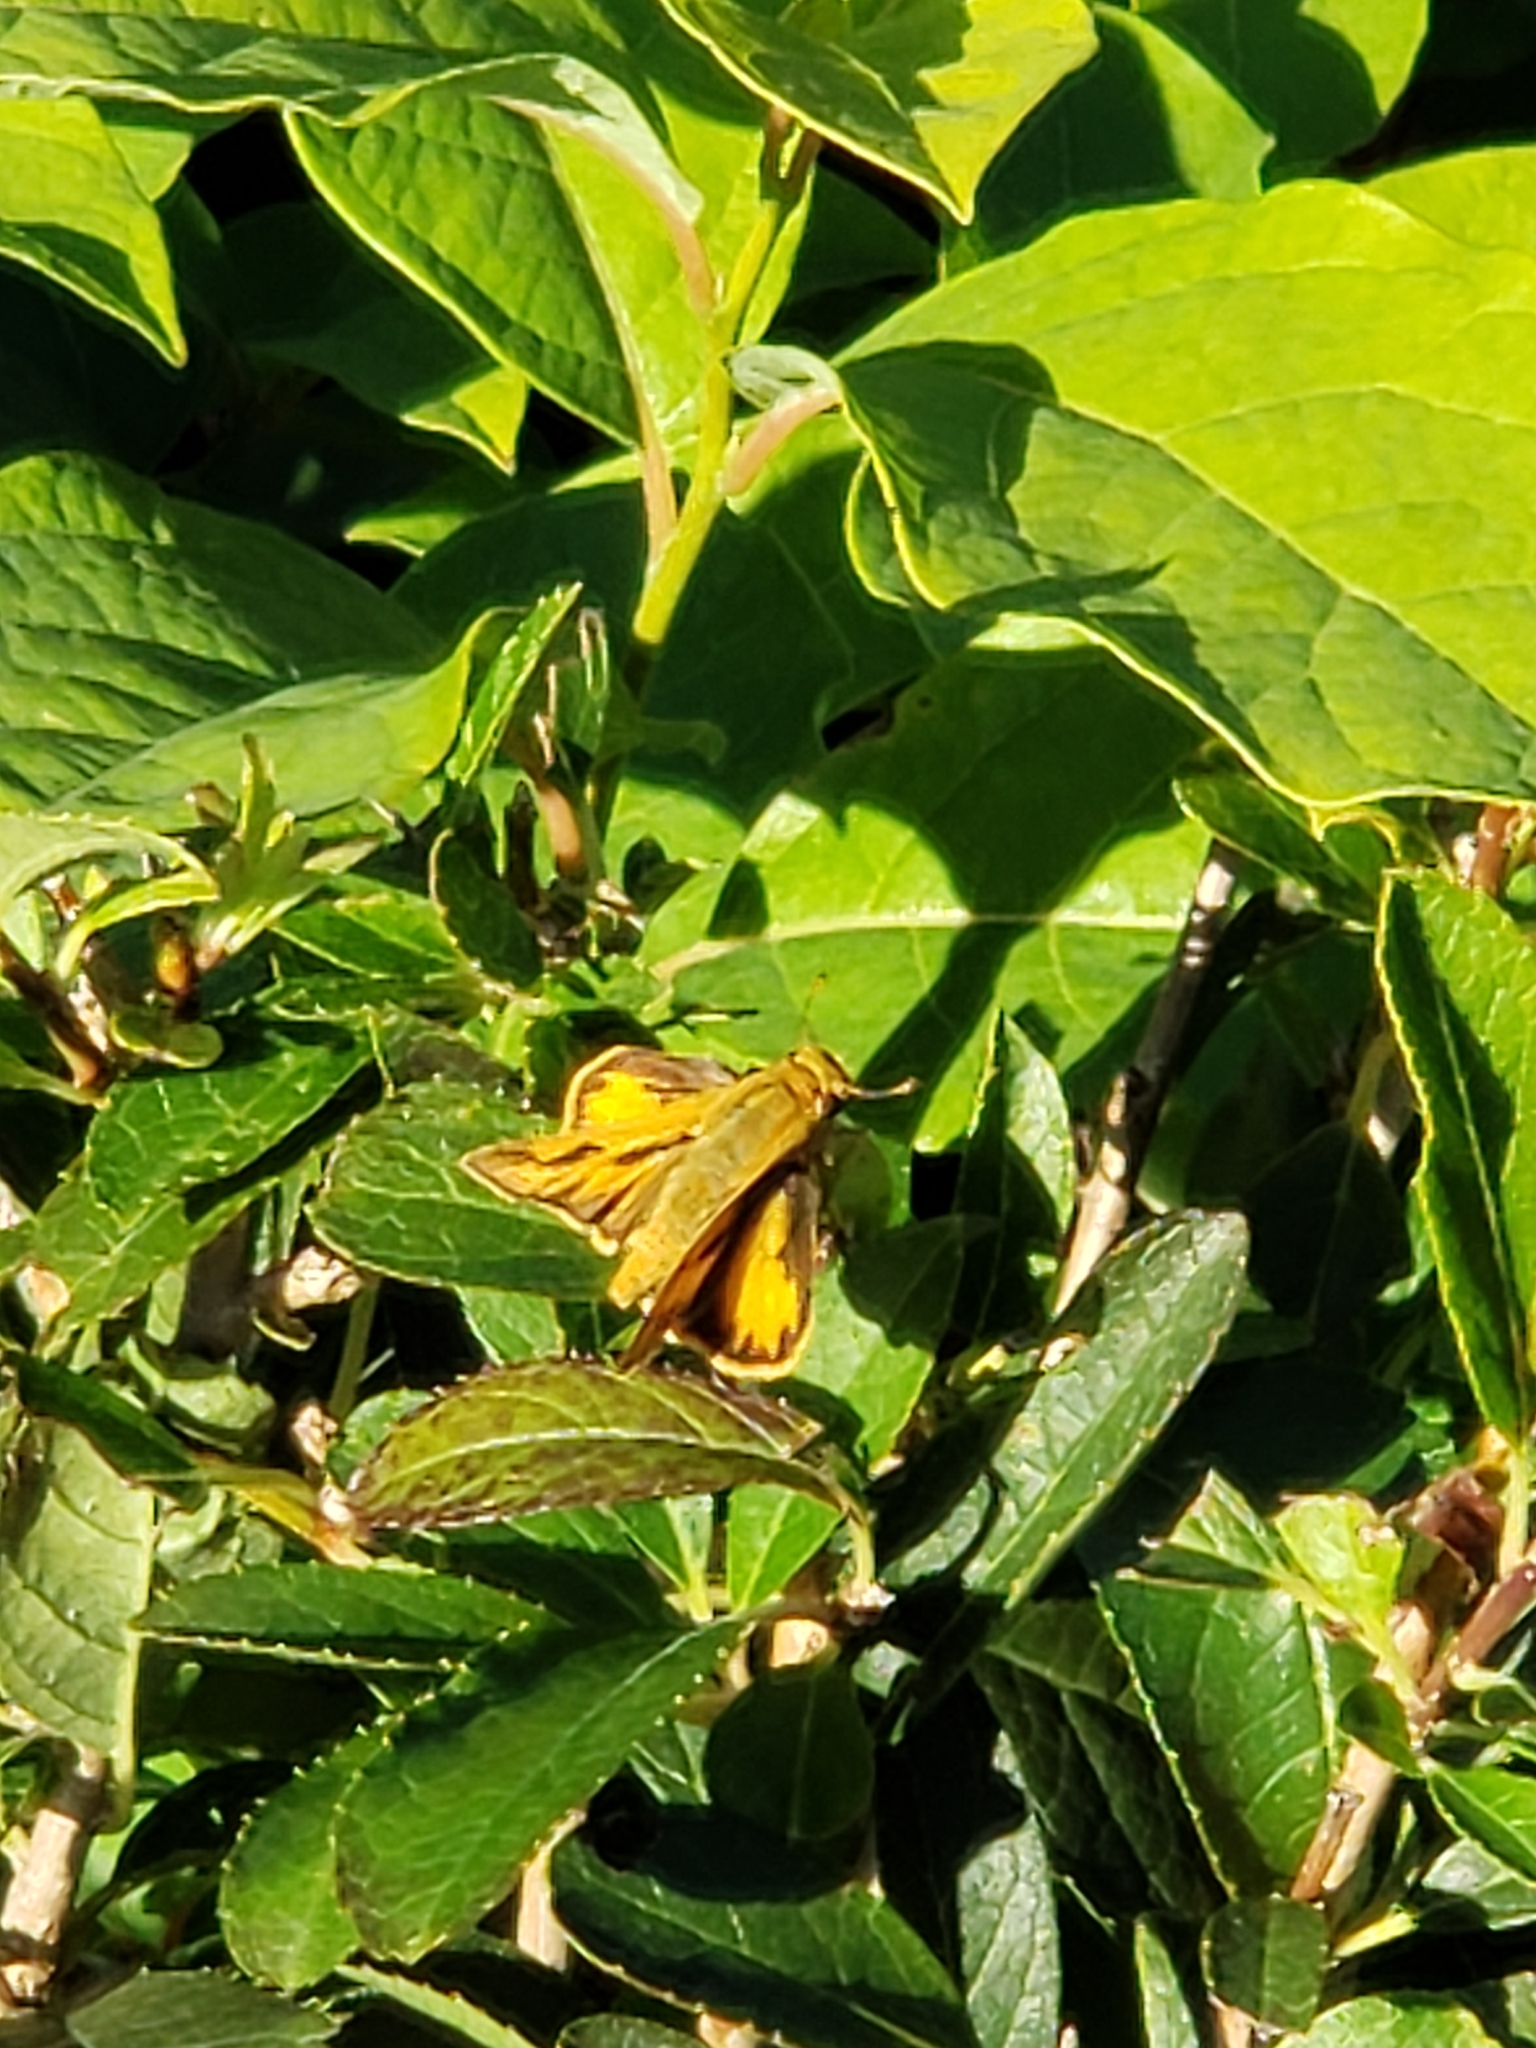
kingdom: Animalia
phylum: Arthropoda
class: Insecta
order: Lepidoptera
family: Hesperiidae
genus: Hylephila
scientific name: Hylephila phyleus
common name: Fiery skipper
